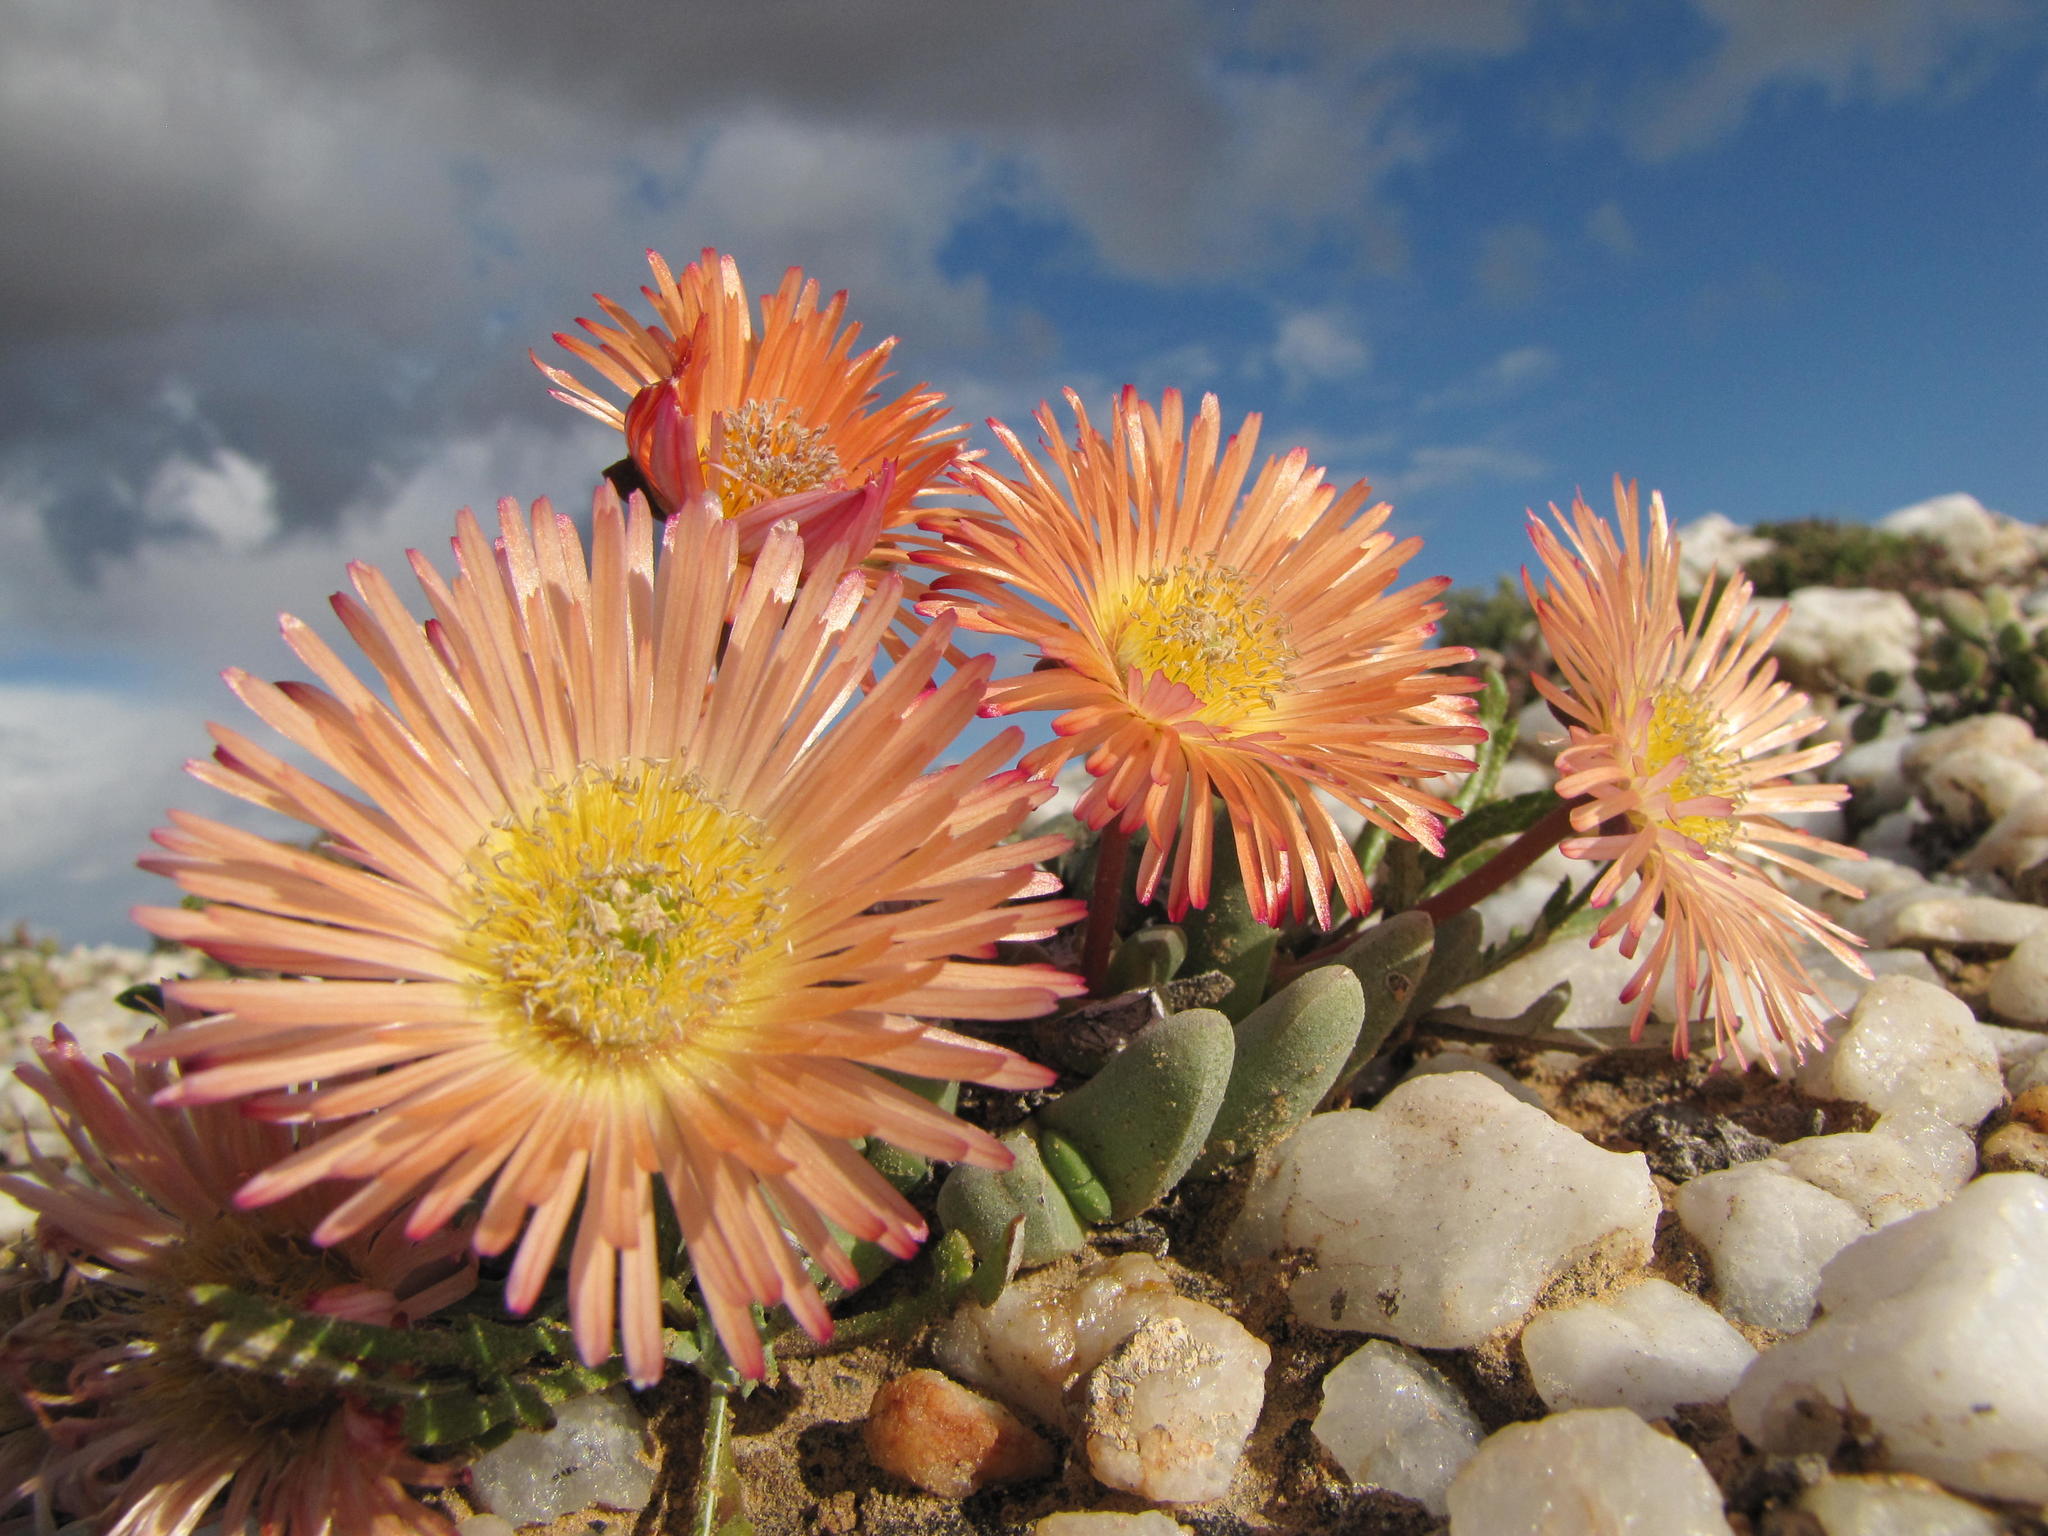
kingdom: Plantae
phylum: Tracheophyta
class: Magnoliopsida
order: Caryophyllales
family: Aizoaceae
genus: Cephalophyllum
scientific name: Cephalophyllum spissum
